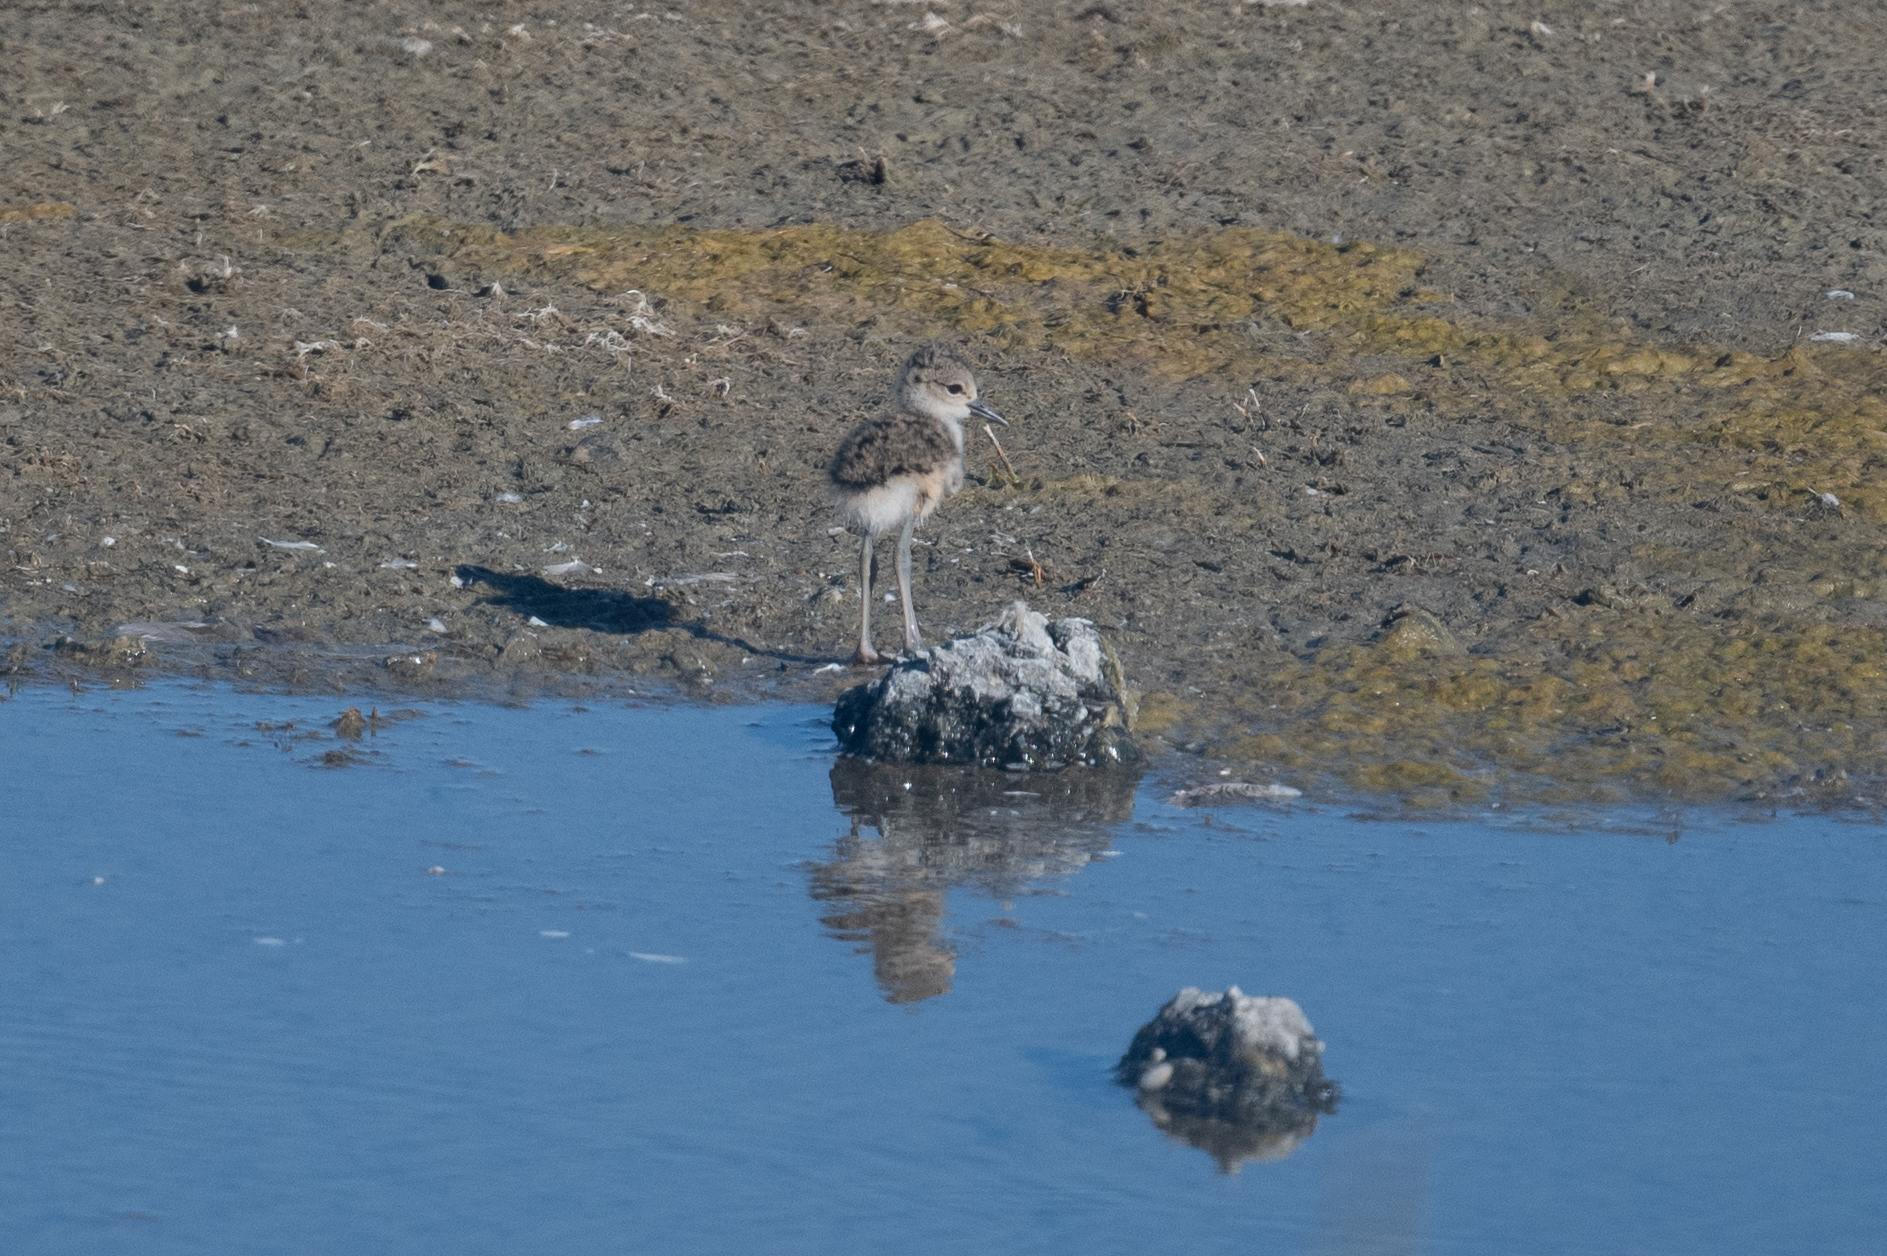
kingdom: Animalia
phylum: Chordata
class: Aves
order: Charadriiformes
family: Recurvirostridae
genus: Himantopus
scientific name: Himantopus mexicanus
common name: Black-necked stilt
